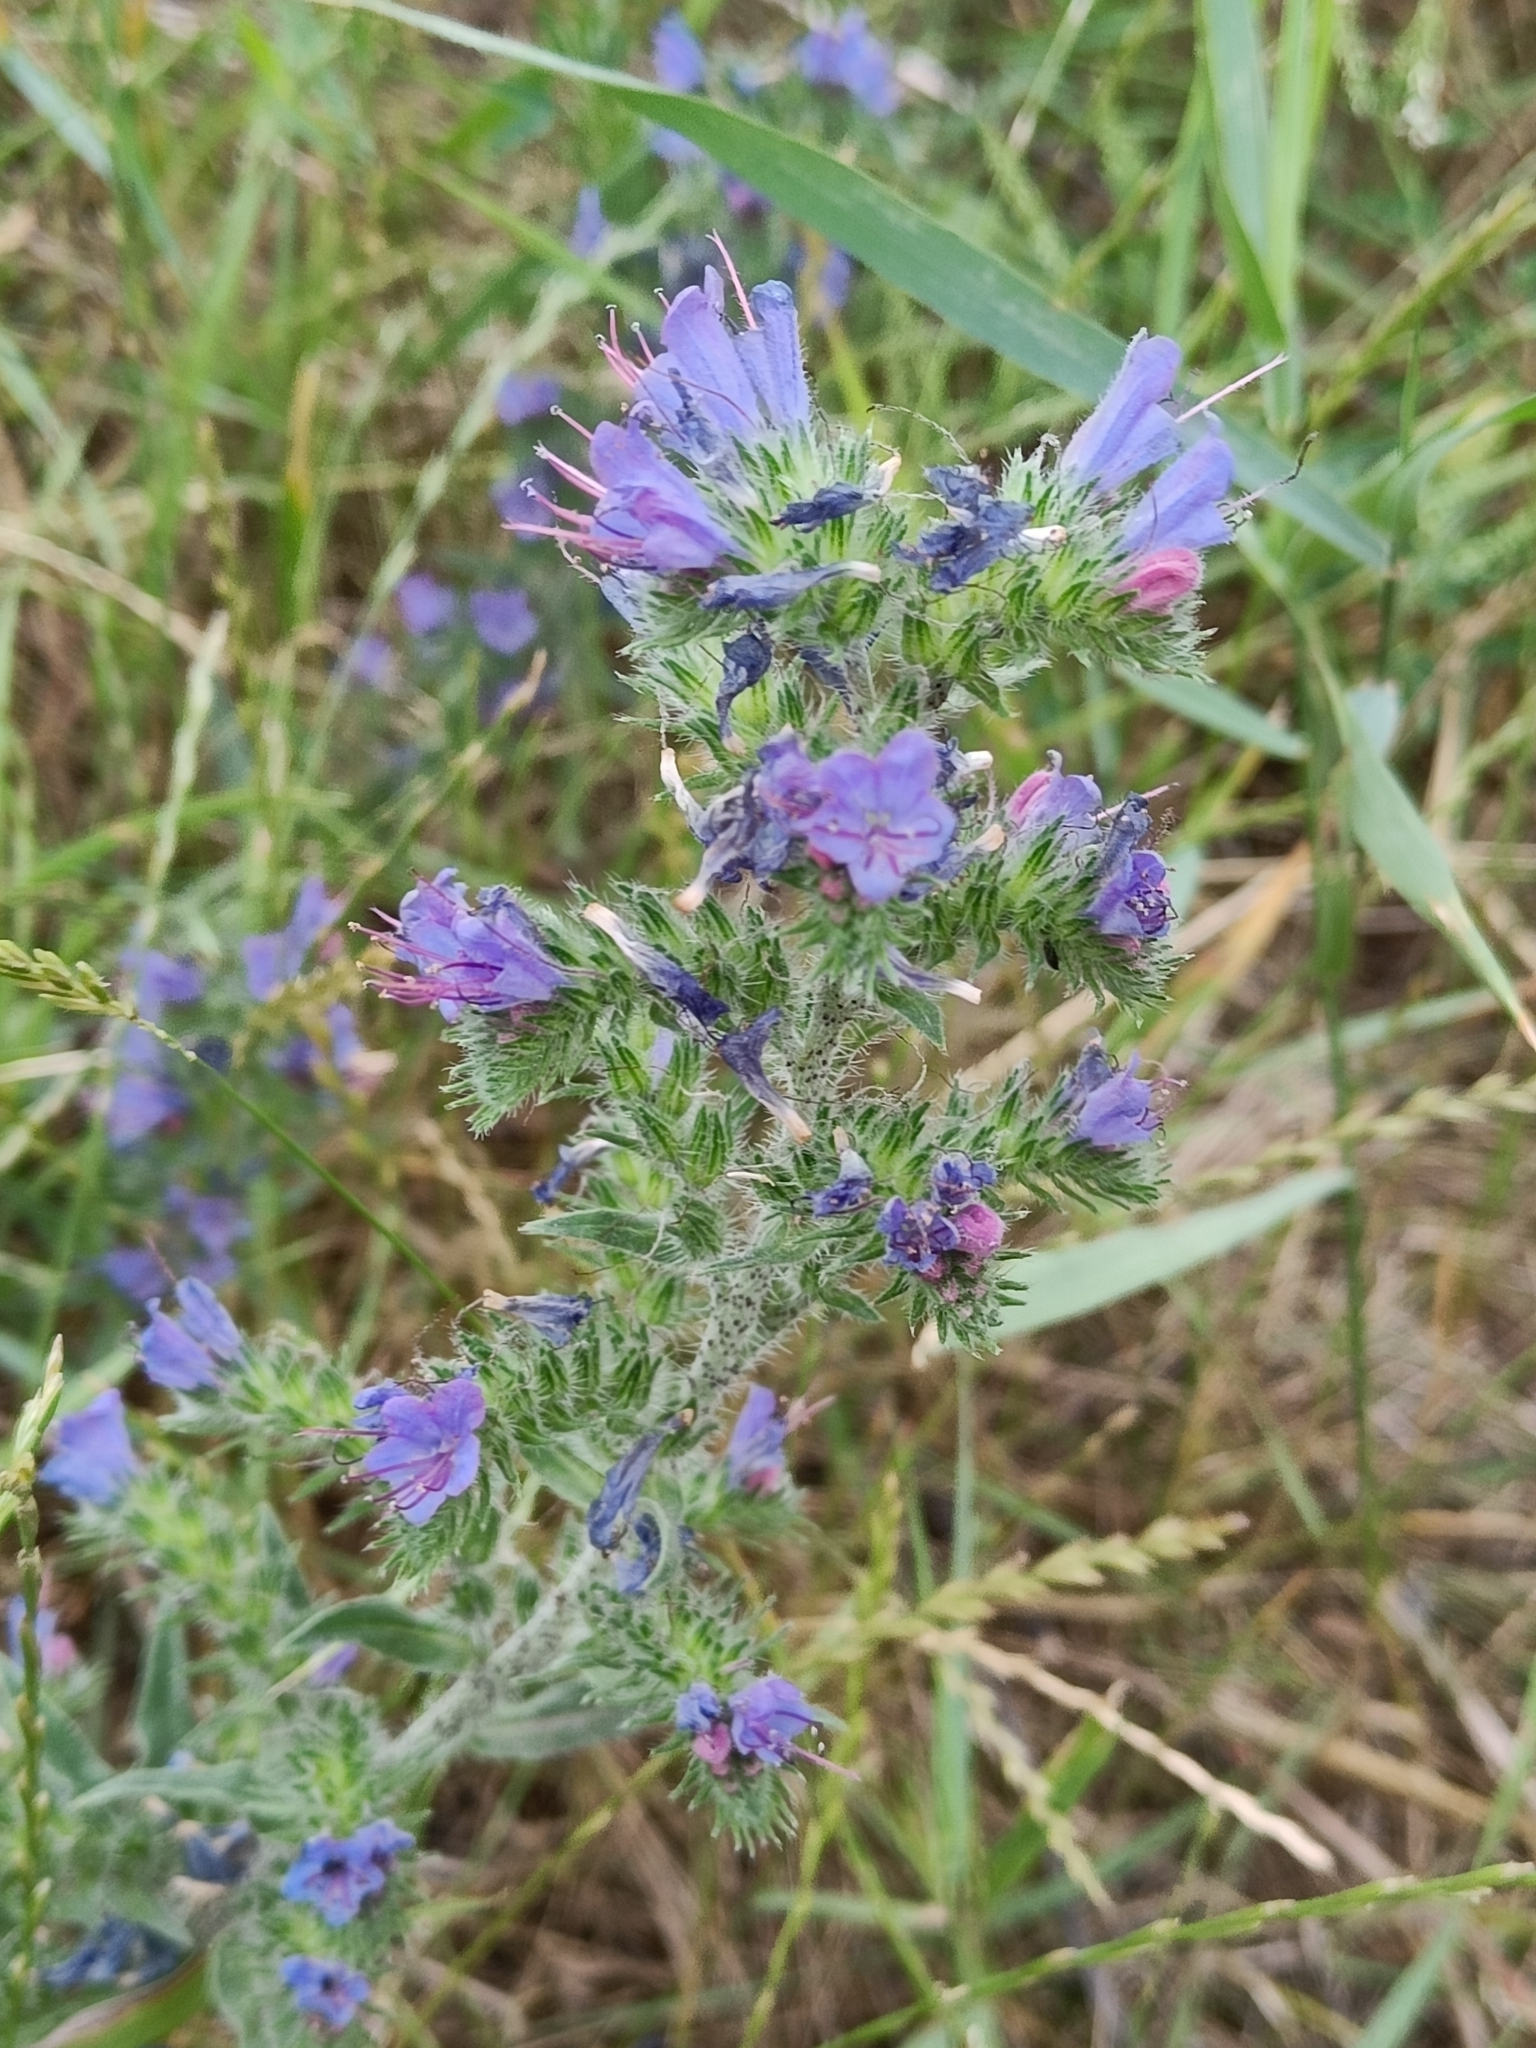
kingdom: Plantae
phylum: Tracheophyta
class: Magnoliopsida
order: Boraginales
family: Boraginaceae
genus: Echium
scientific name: Echium vulgare
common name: Common viper's bugloss
